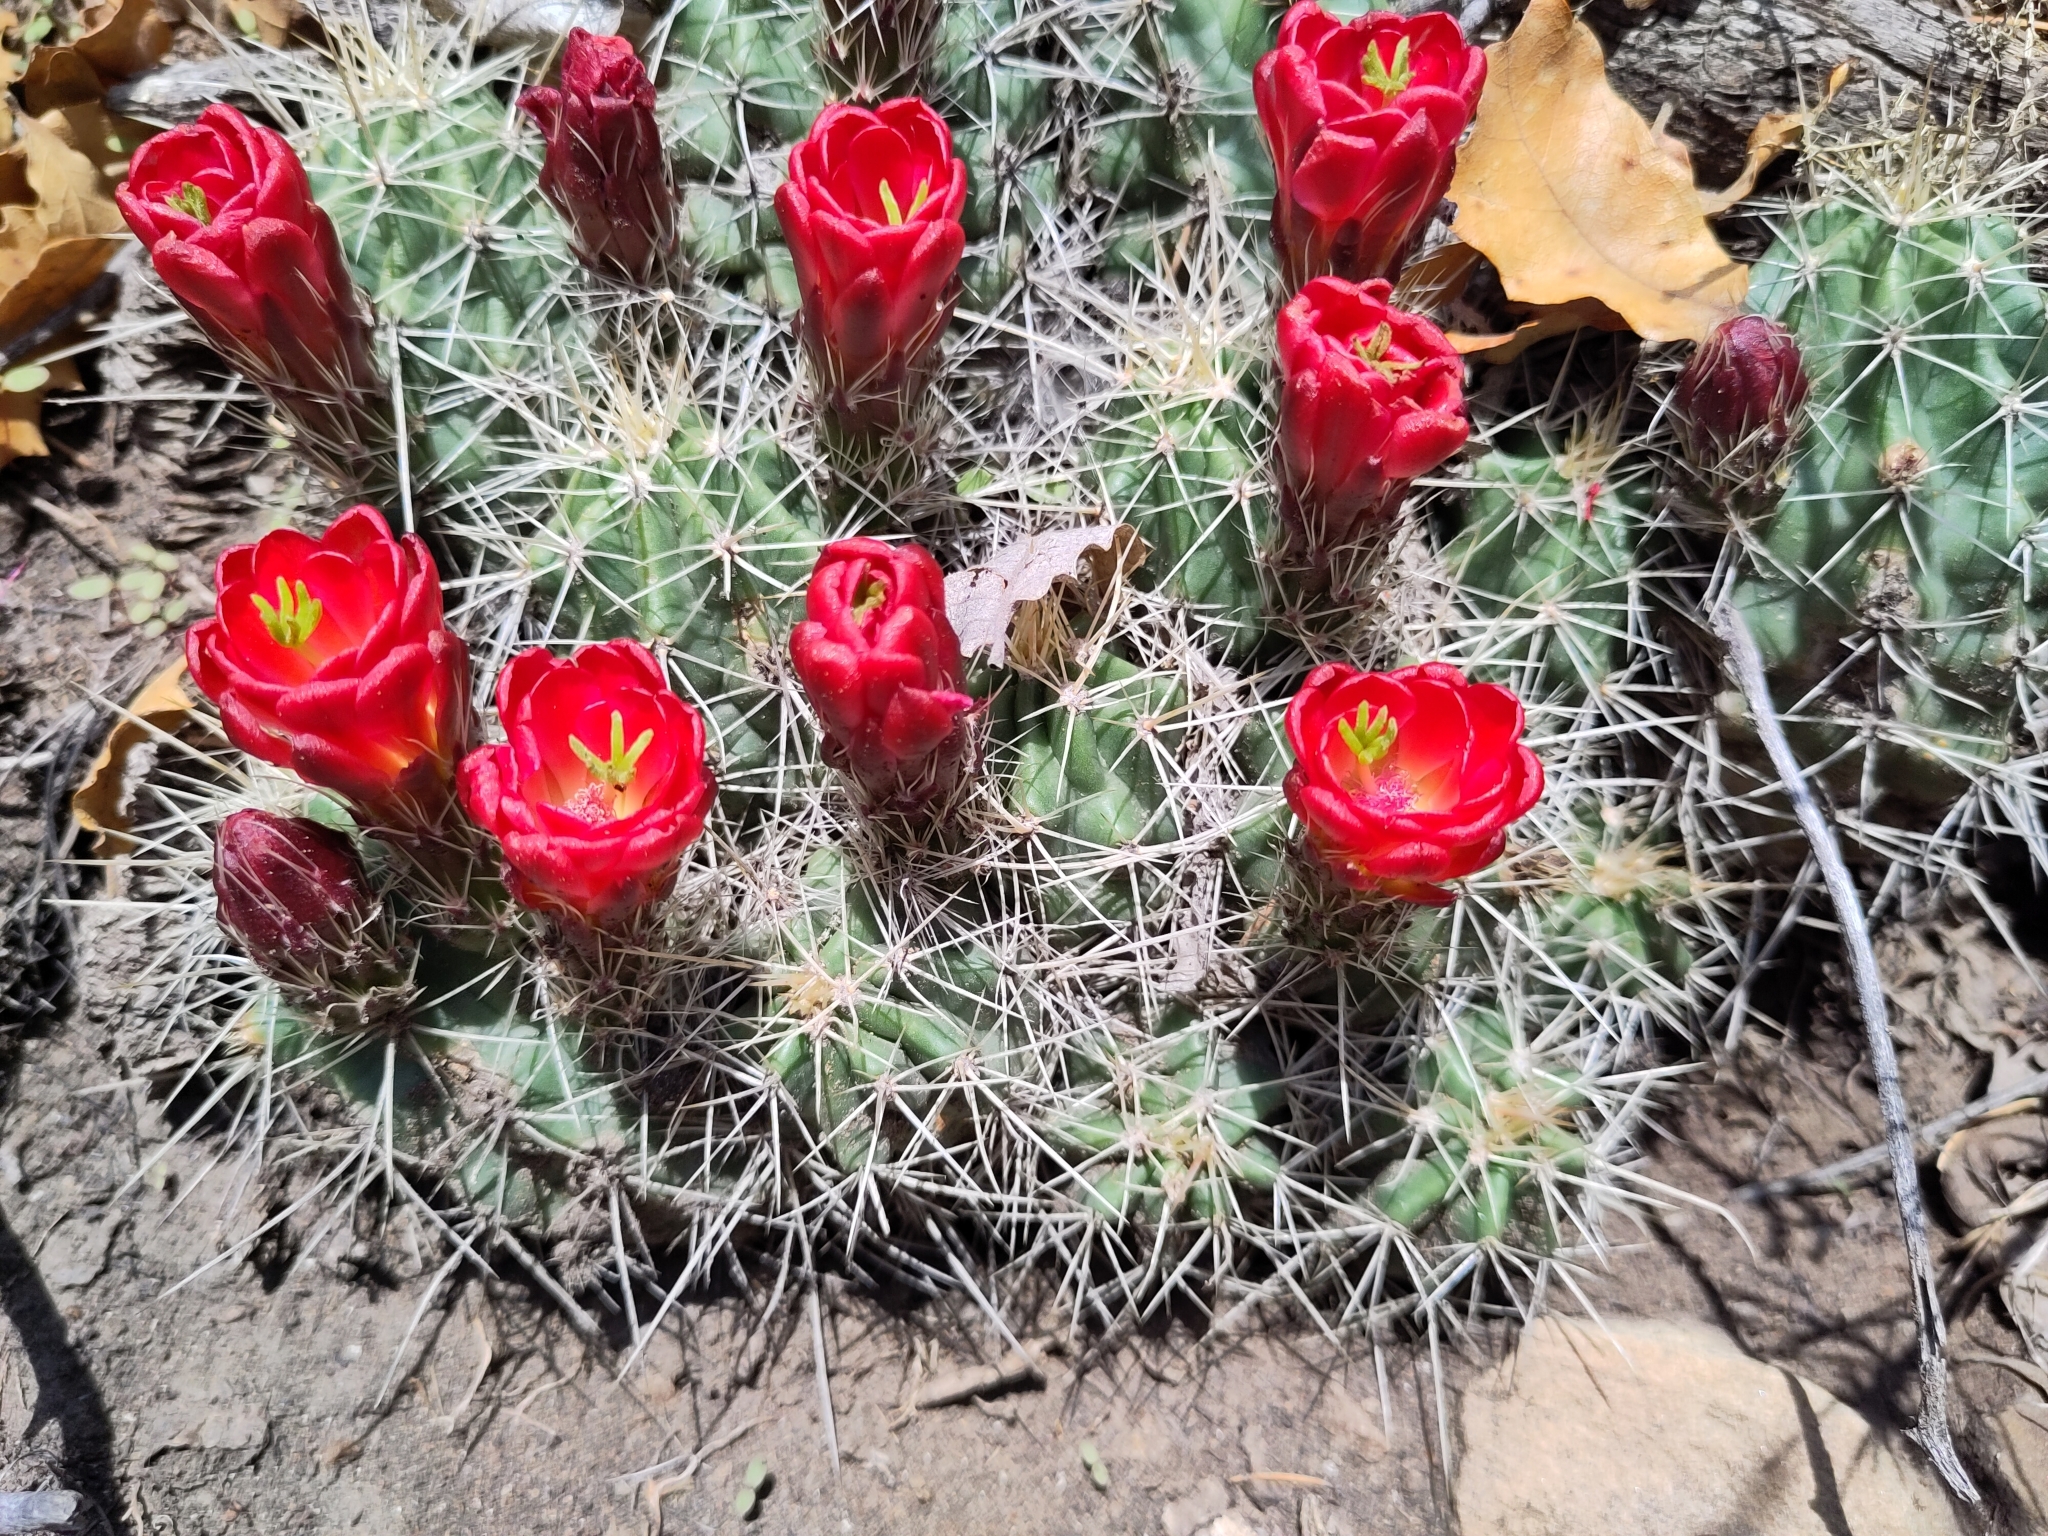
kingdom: Plantae
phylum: Tracheophyta
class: Magnoliopsida
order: Caryophyllales
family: Cactaceae
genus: Echinocereus
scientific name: Echinocereus coccineus
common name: Scarlet hedgehog cactus
